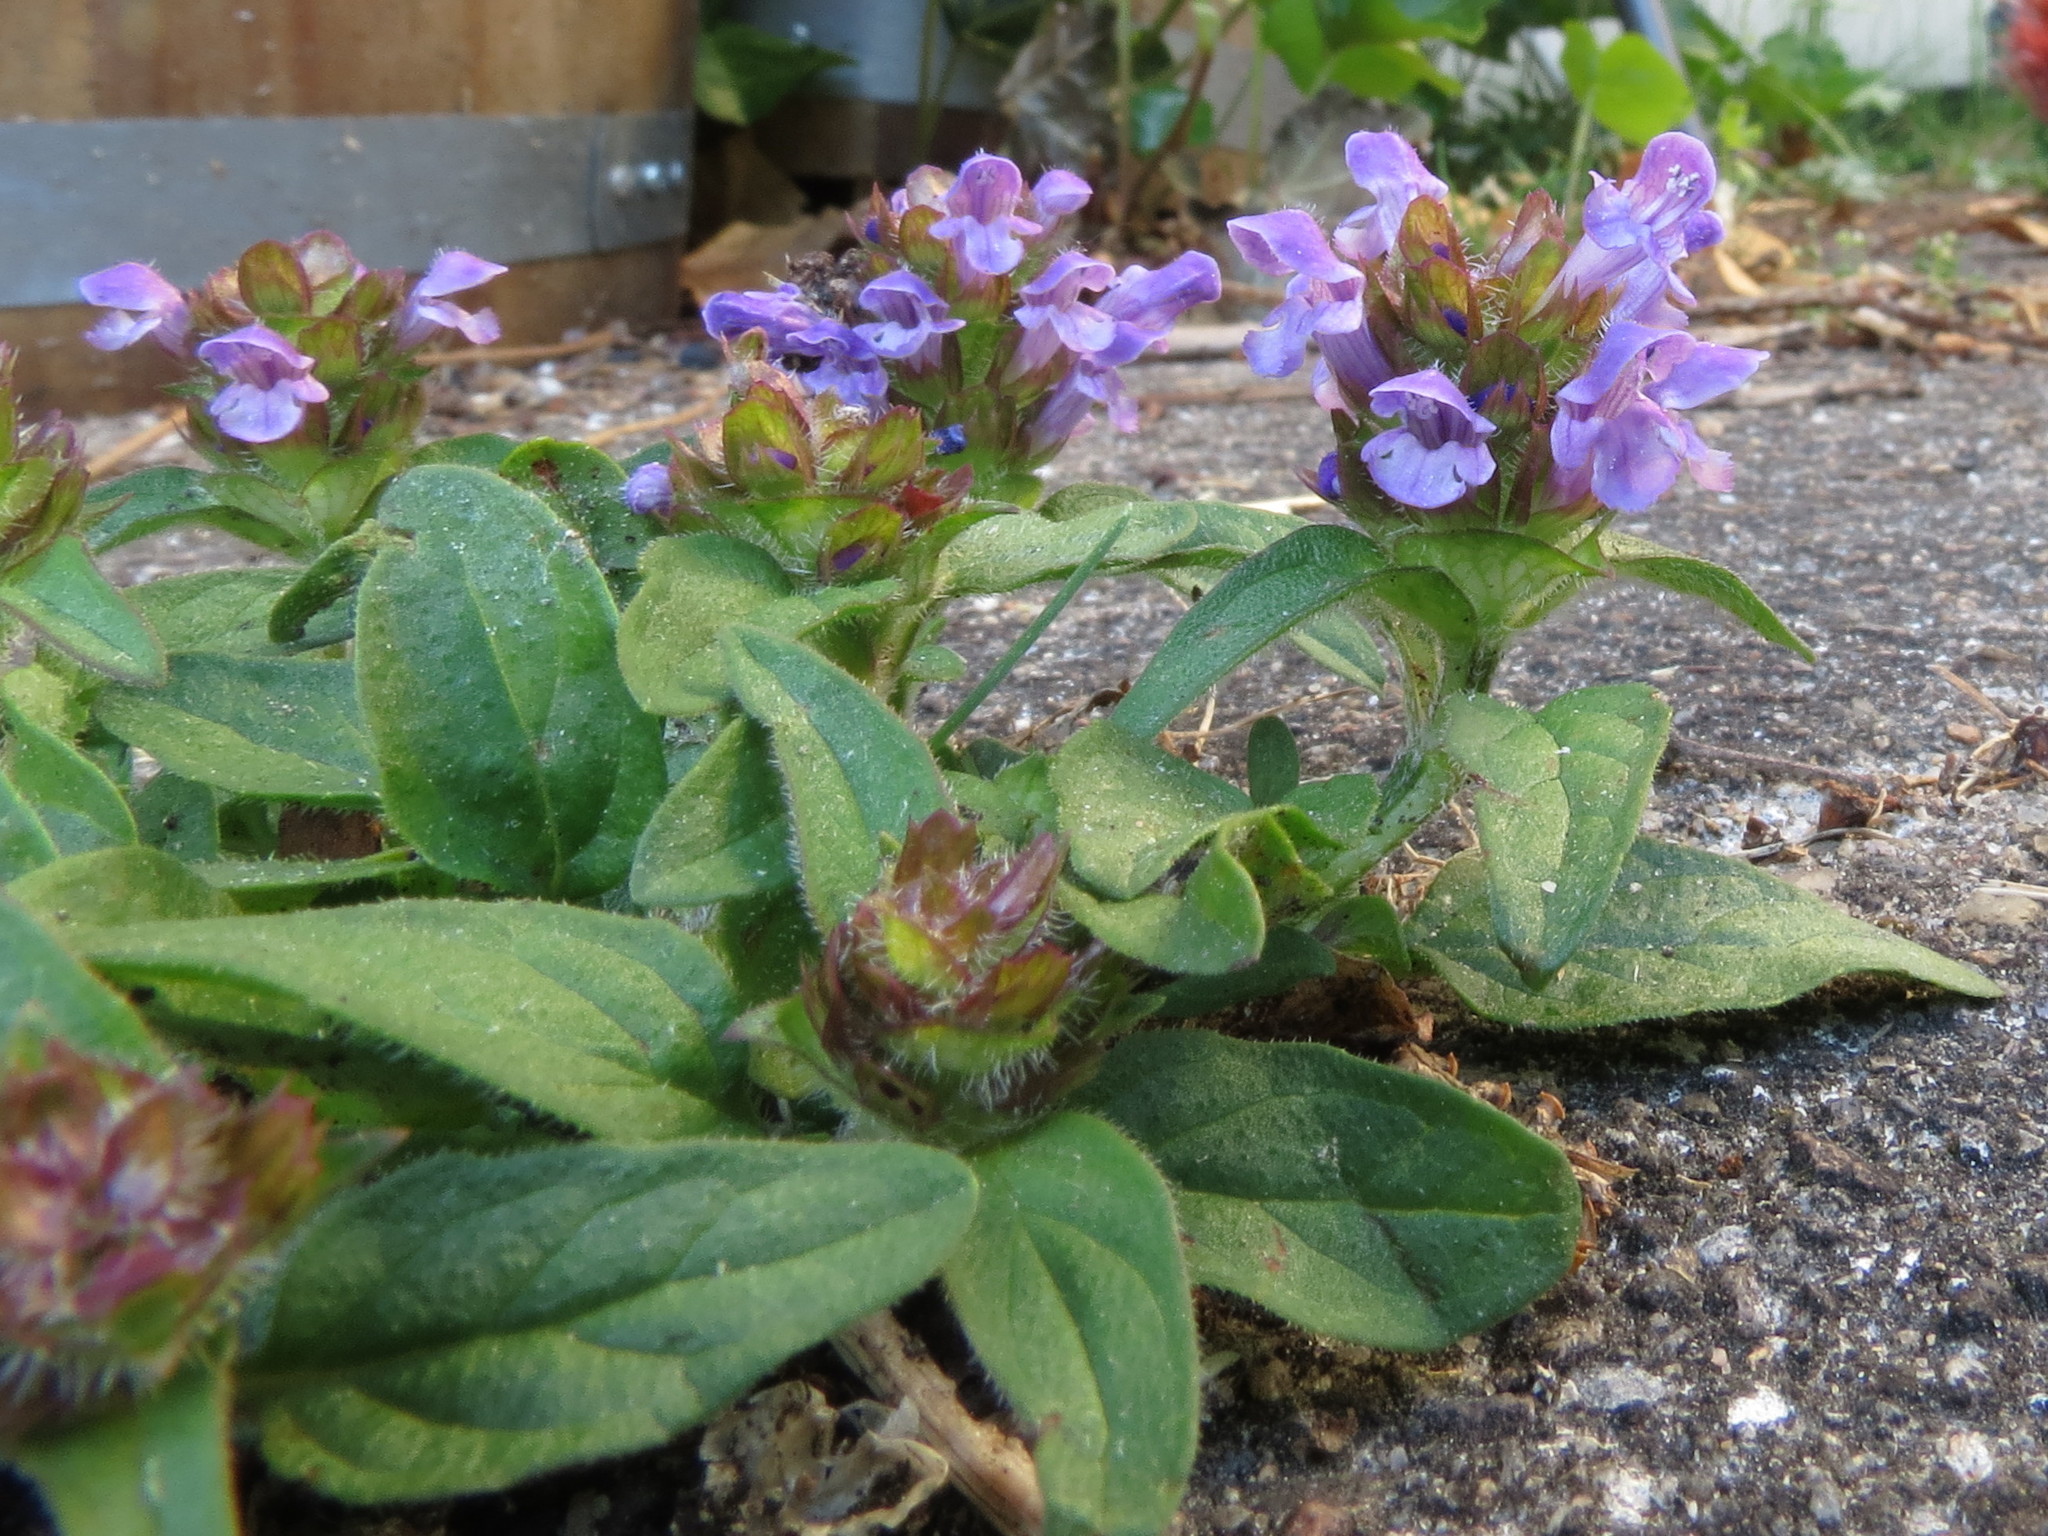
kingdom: Plantae
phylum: Tracheophyta
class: Magnoliopsida
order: Lamiales
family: Lamiaceae
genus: Prunella
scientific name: Prunella vulgaris
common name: Heal-all
